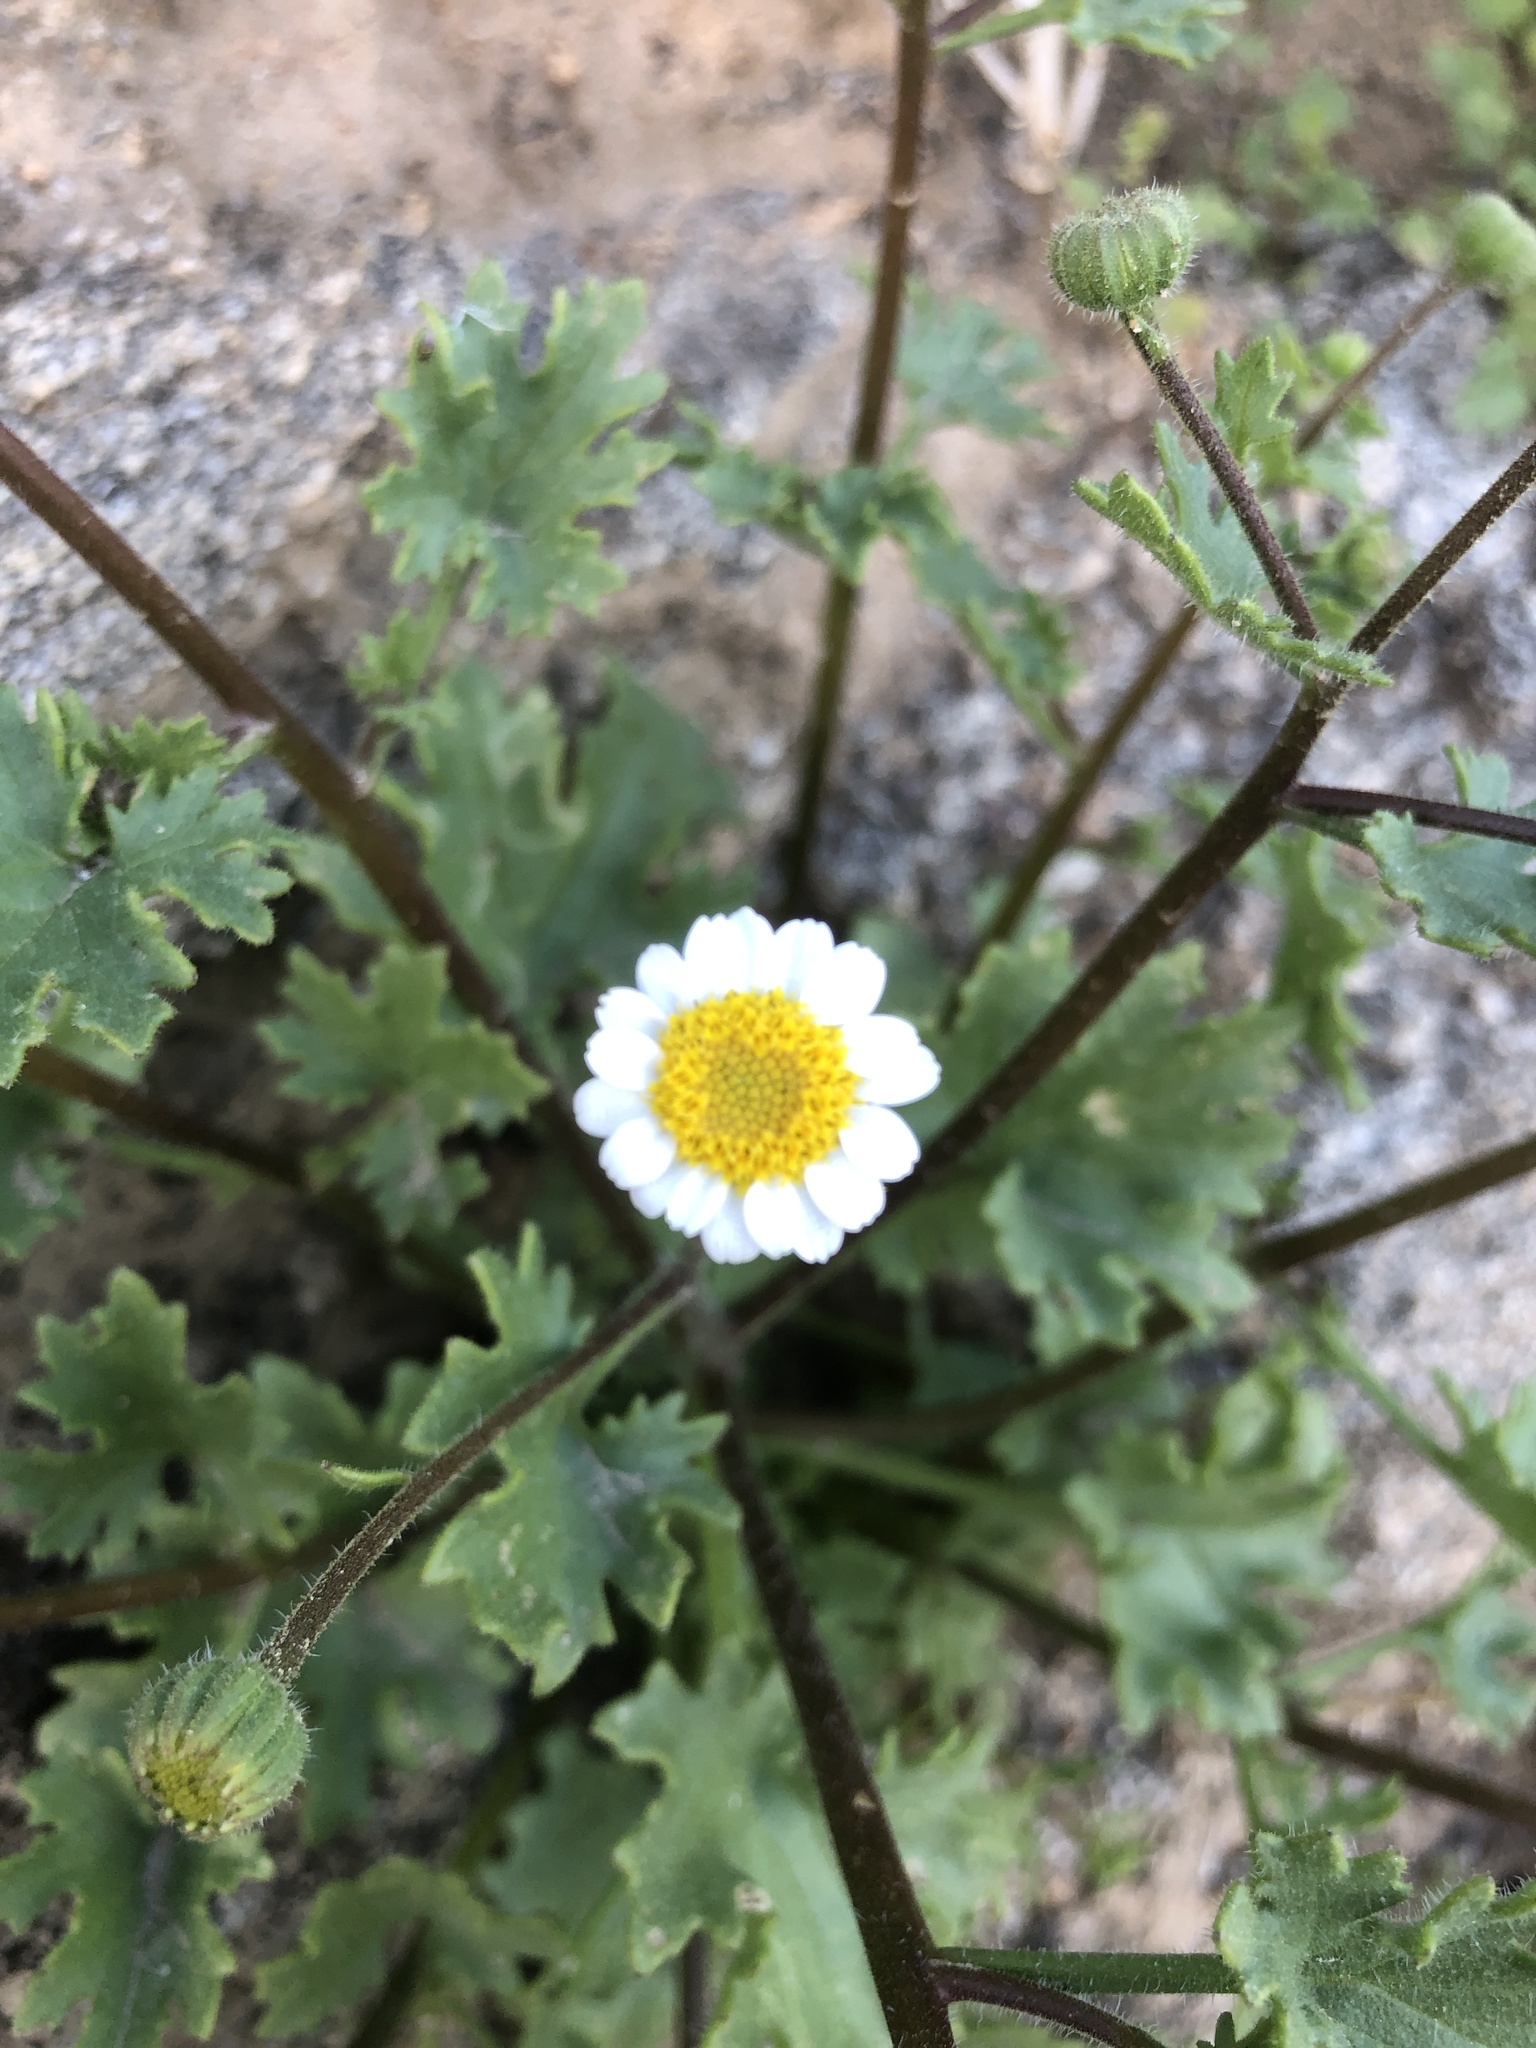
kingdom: Plantae
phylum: Tracheophyta
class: Magnoliopsida
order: Asterales
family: Asteraceae
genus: Laphamia
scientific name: Laphamia emoryi
